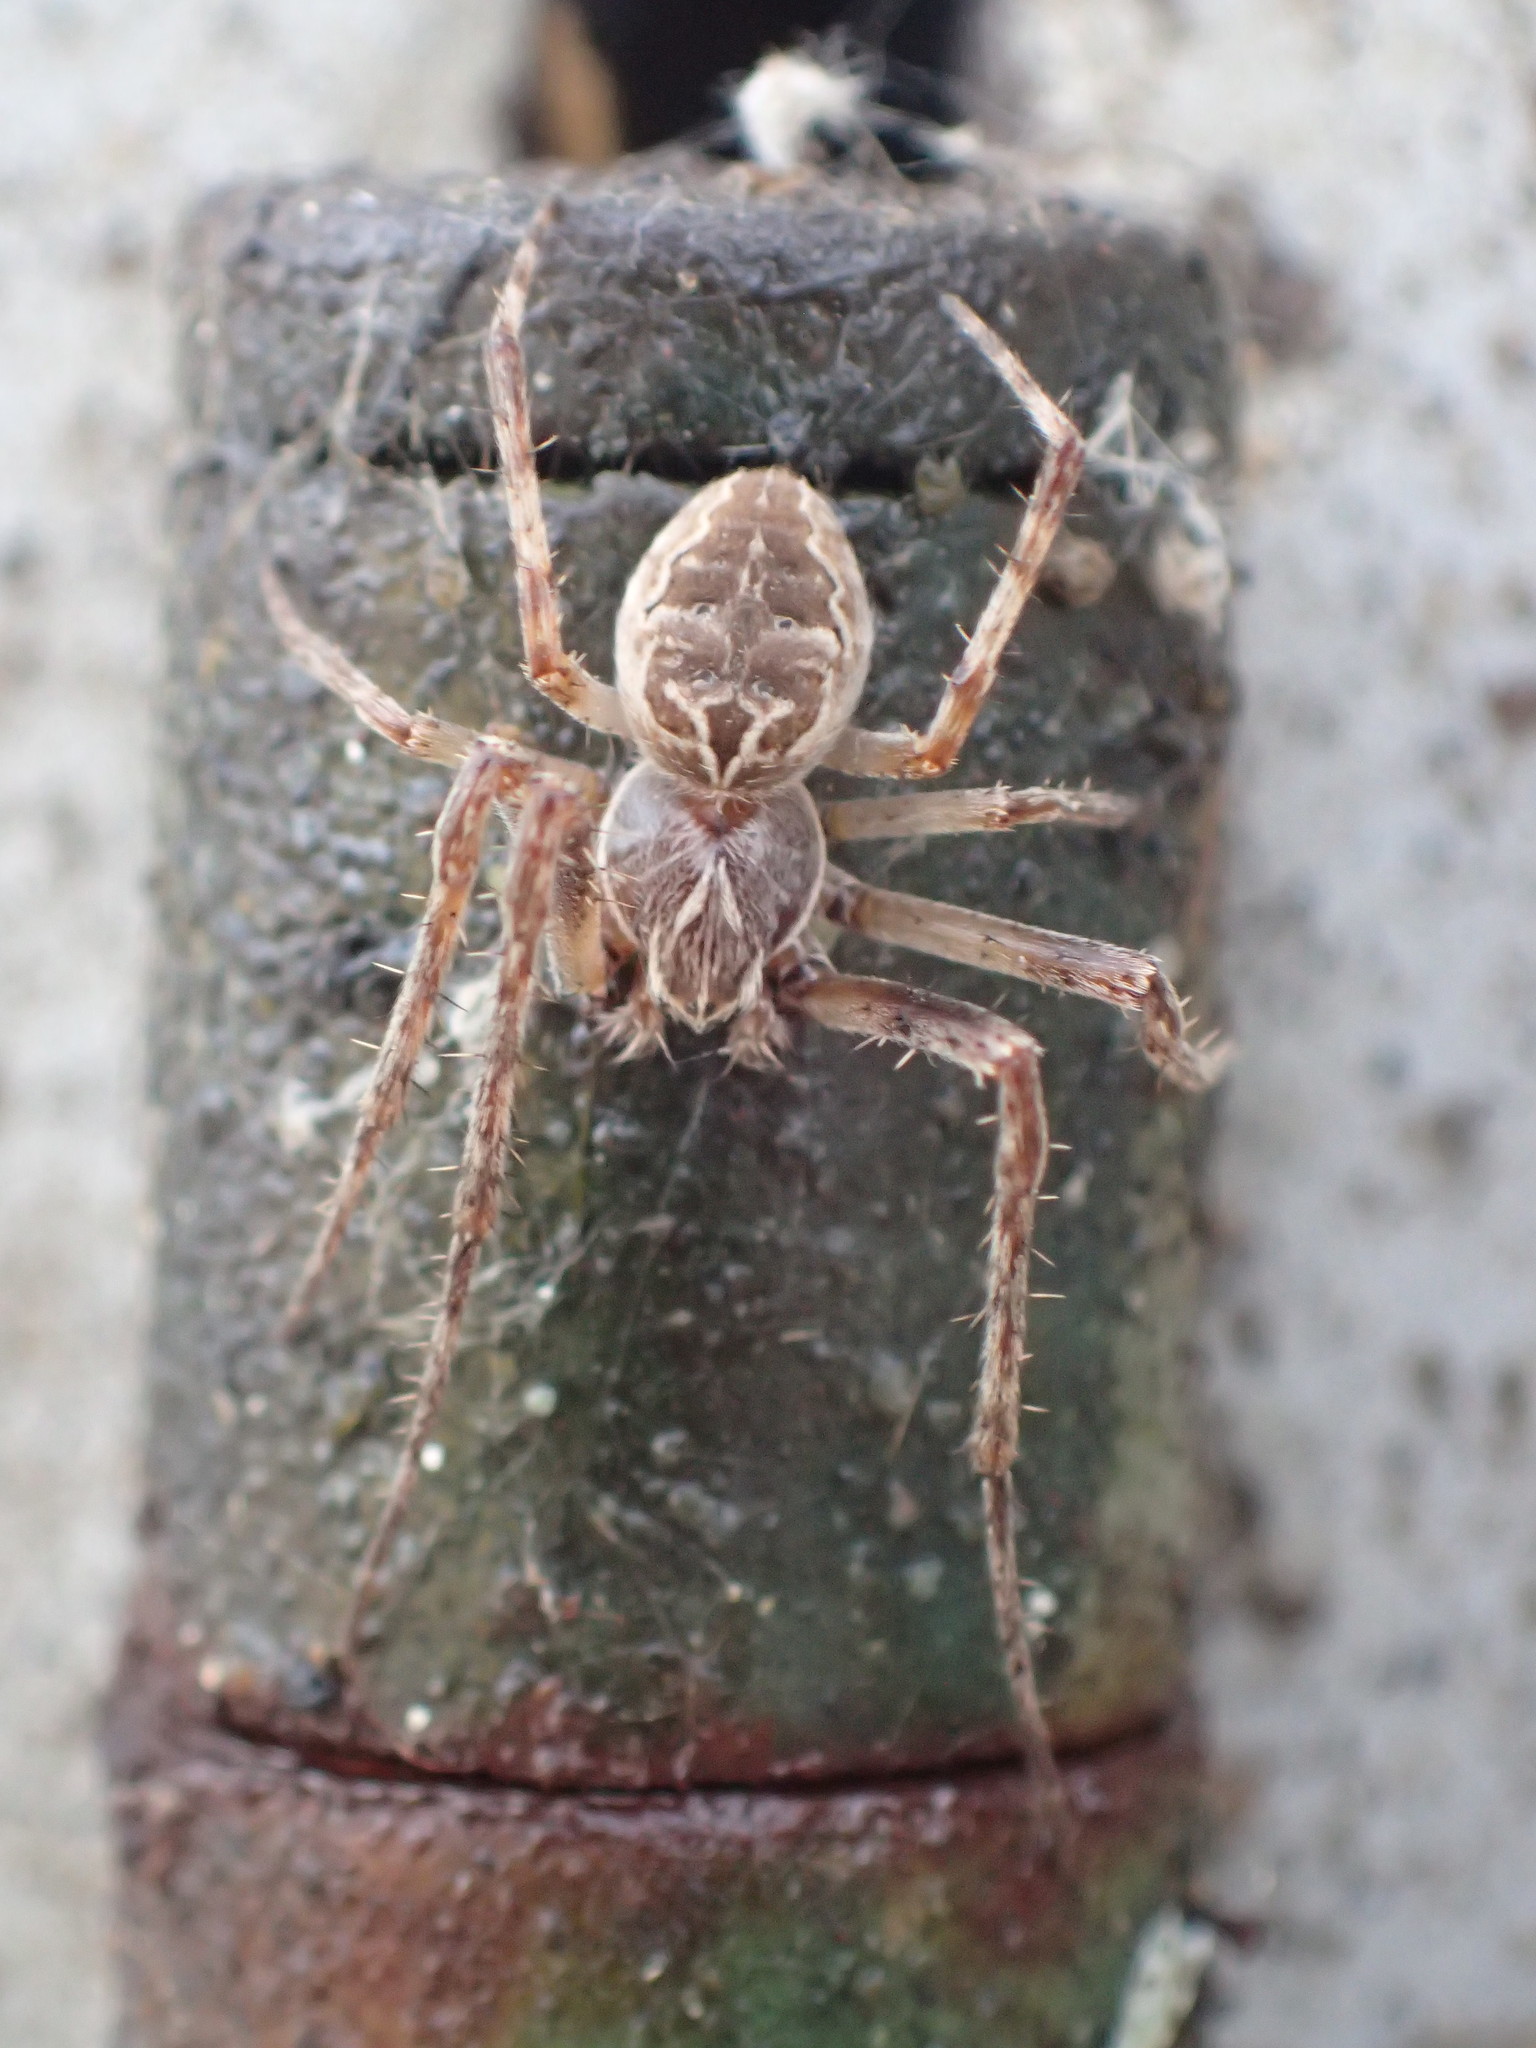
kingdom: Animalia
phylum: Arthropoda
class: Arachnida
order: Araneae
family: Araneidae
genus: Larinioides
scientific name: Larinioides sclopetarius
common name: Bridge orbweaver
